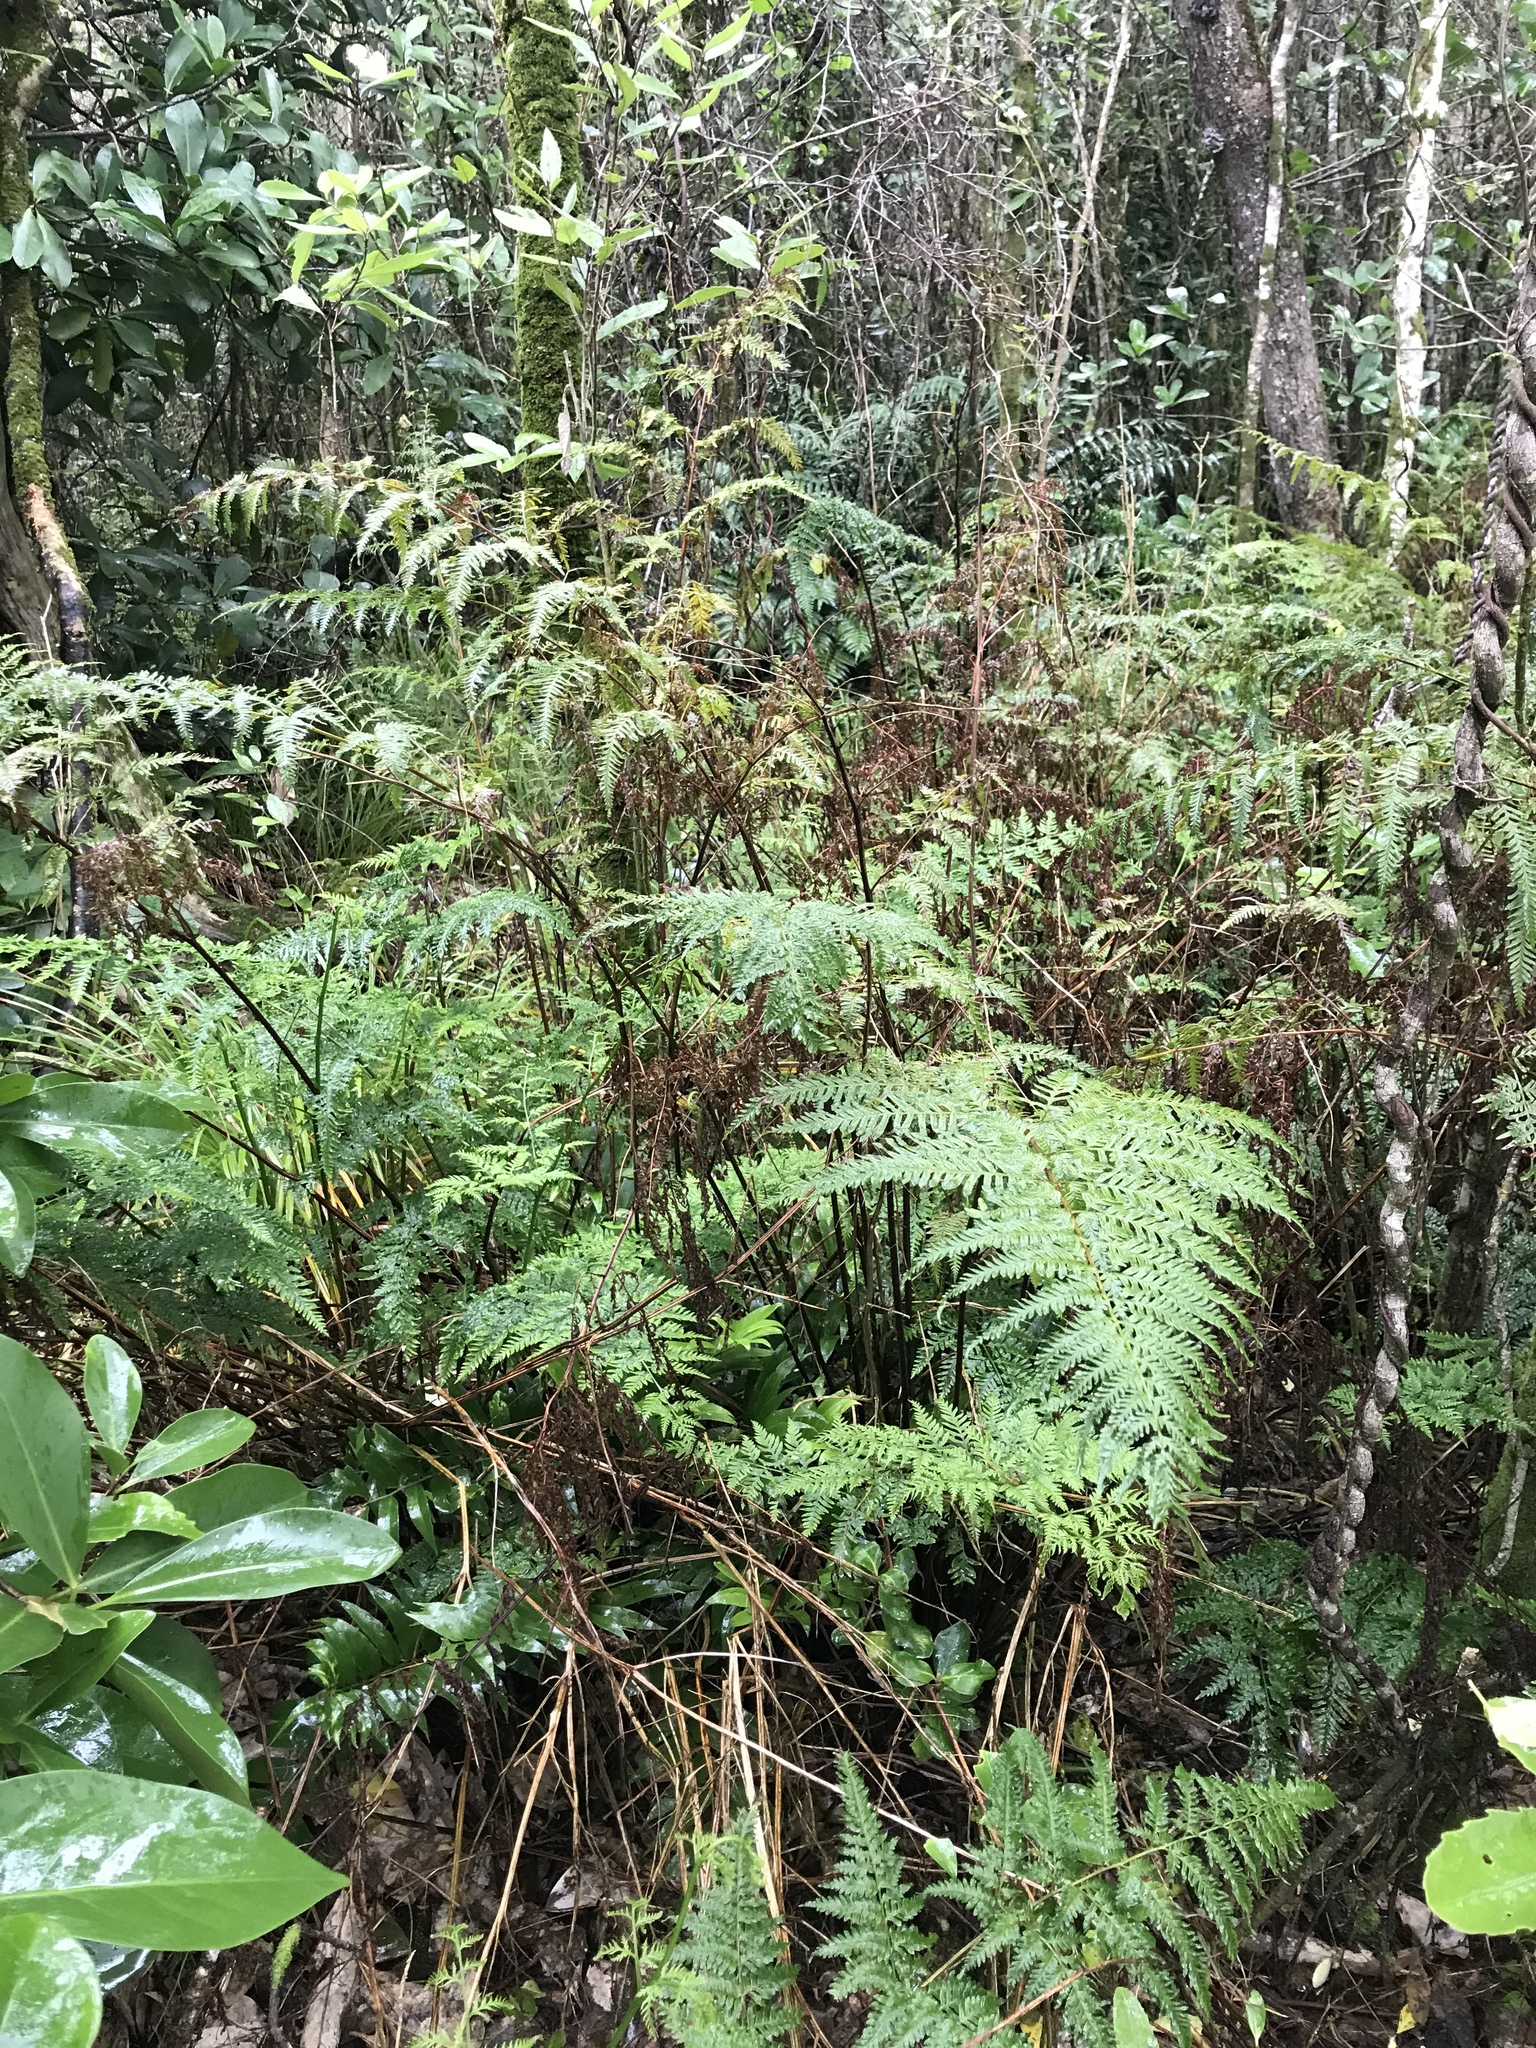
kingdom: Plantae
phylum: Tracheophyta
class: Polypodiopsida
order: Polypodiales
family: Pteridaceae
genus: Pteris
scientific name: Pteris tremula
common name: Australian brake
